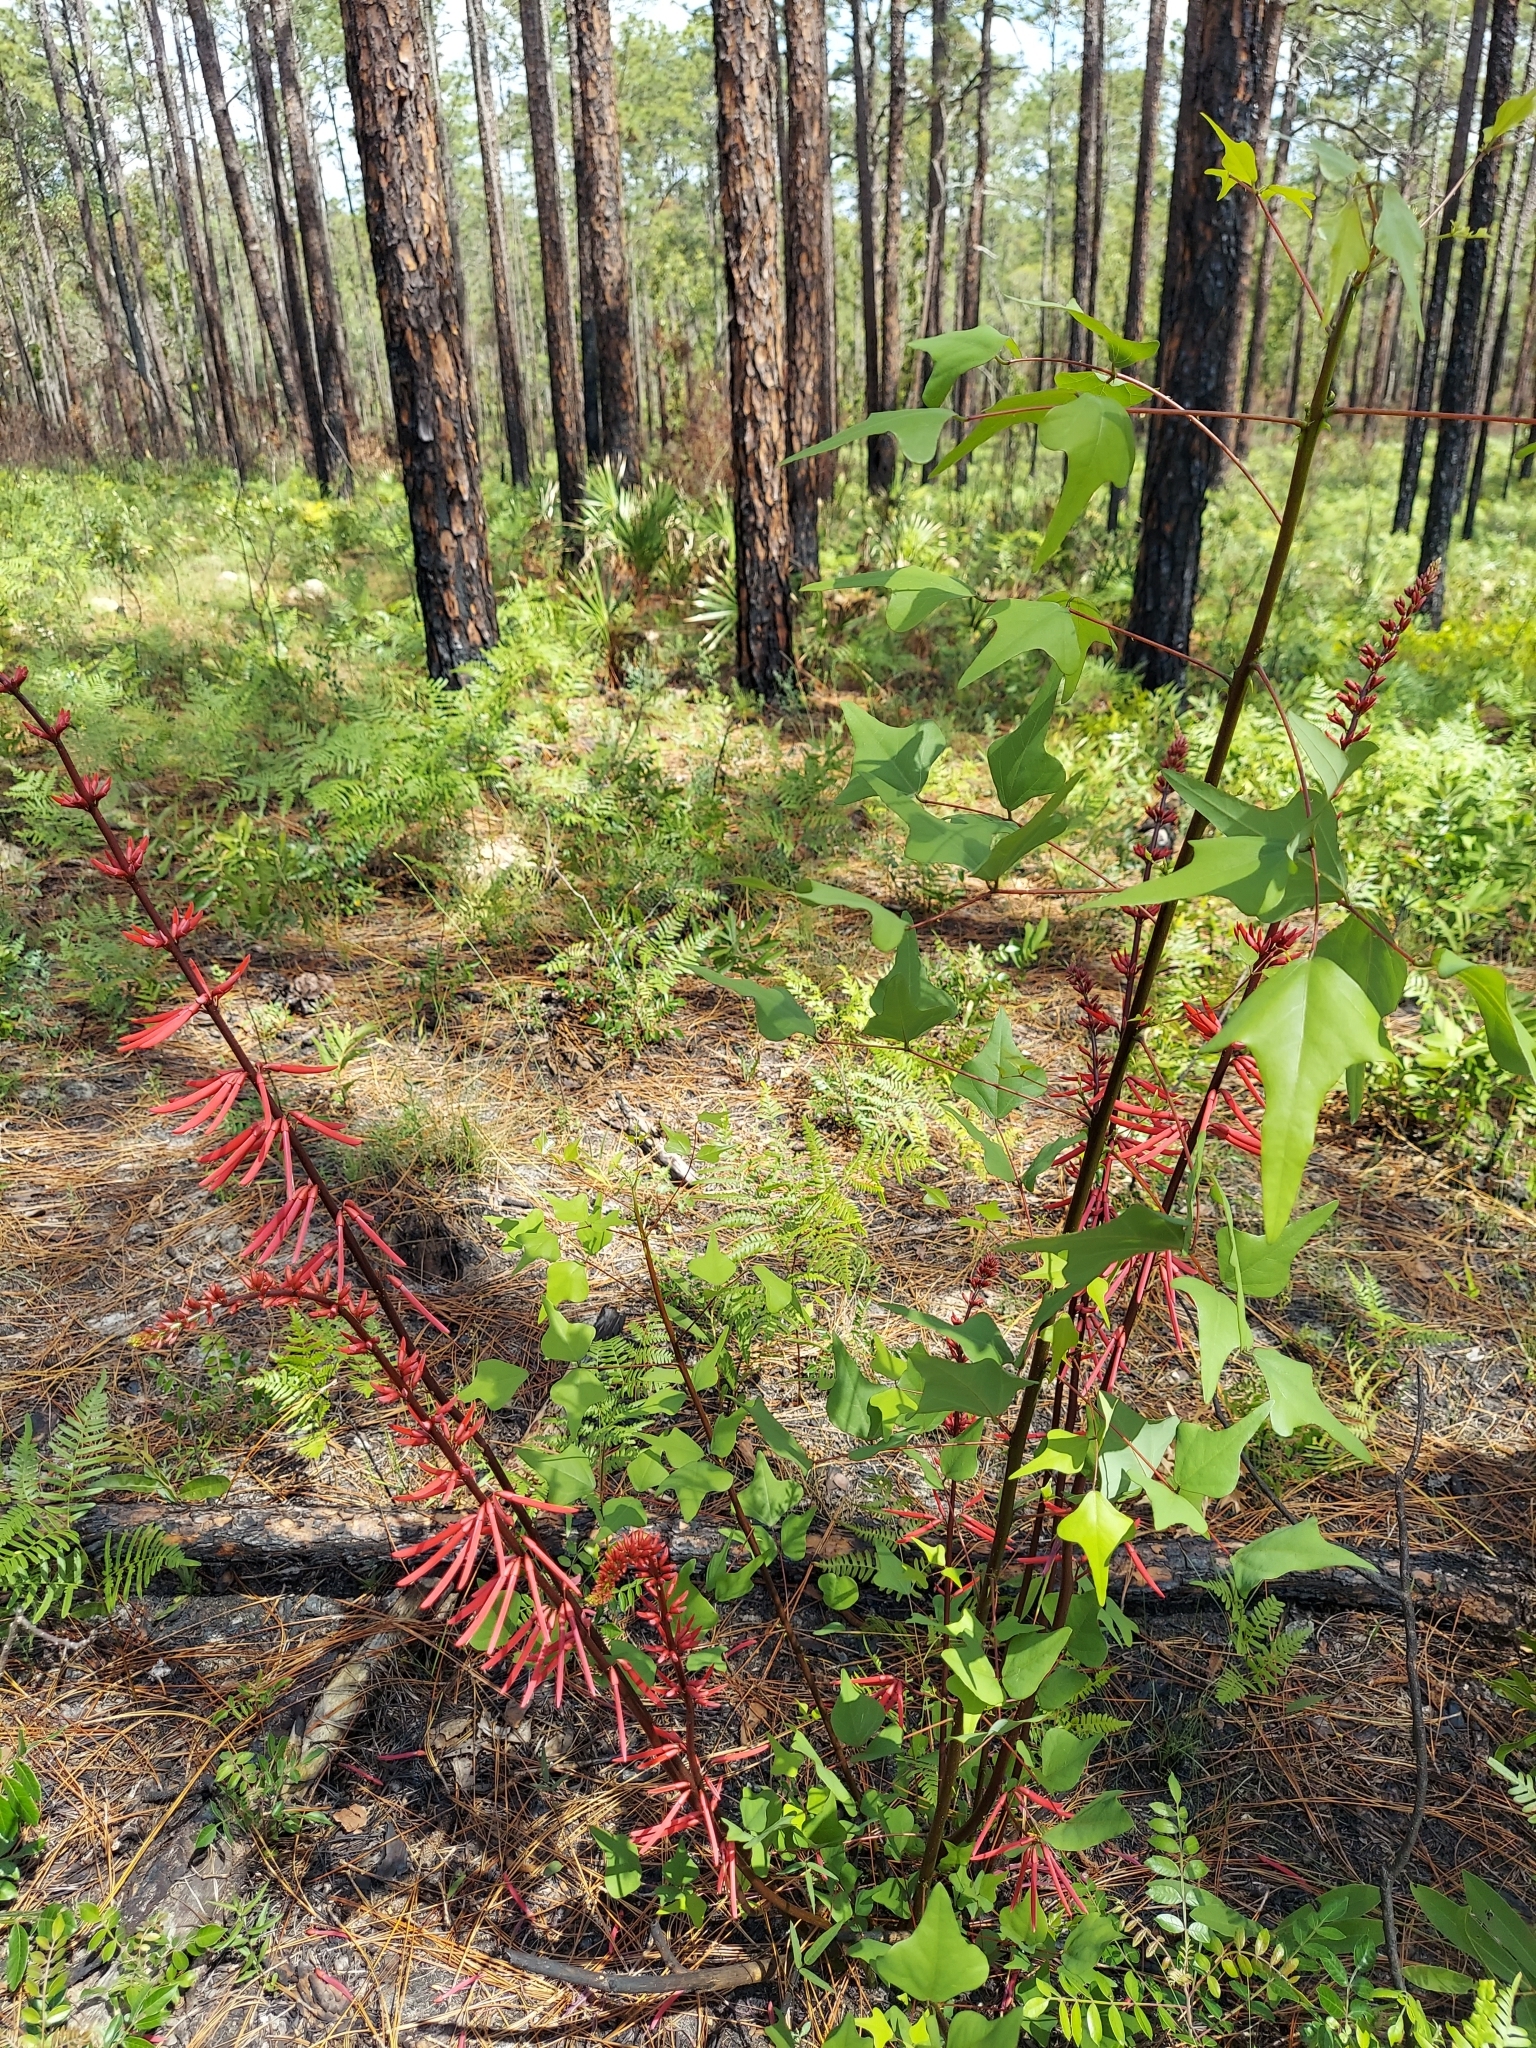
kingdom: Plantae
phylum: Tracheophyta
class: Magnoliopsida
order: Fabales
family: Fabaceae
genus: Erythrina
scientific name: Erythrina herbacea
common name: Coral-bean
